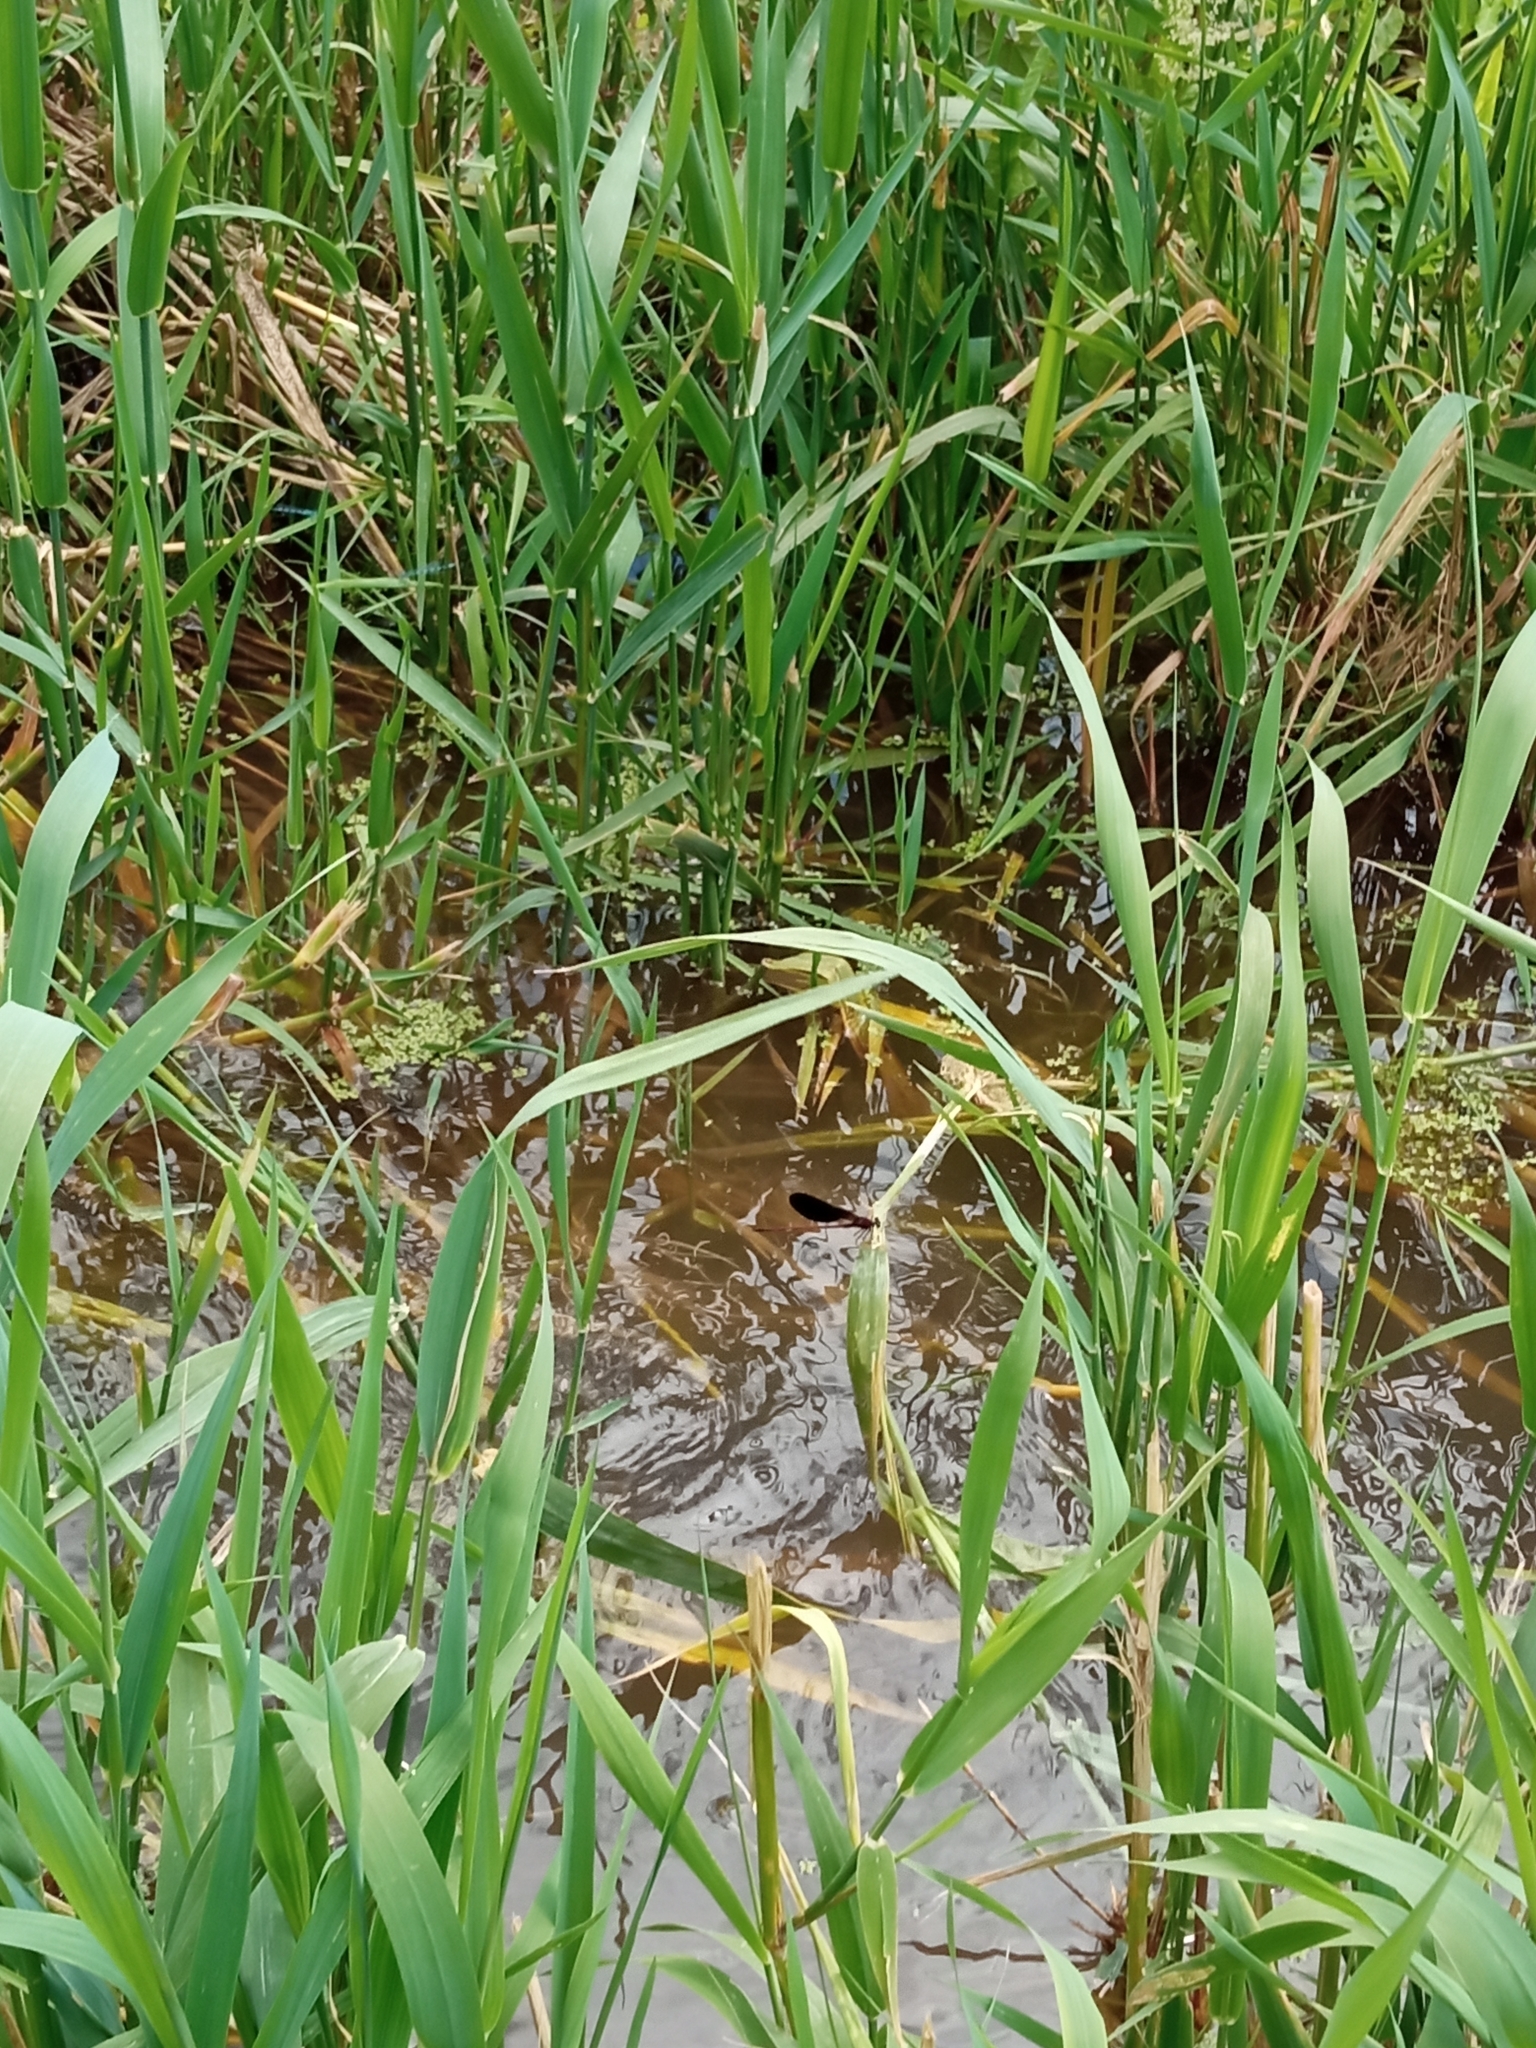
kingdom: Animalia
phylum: Arthropoda
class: Insecta
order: Odonata
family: Calopterygidae
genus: Calopteryx
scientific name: Calopteryx haemorrhoidalis
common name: Copper demoiselle
